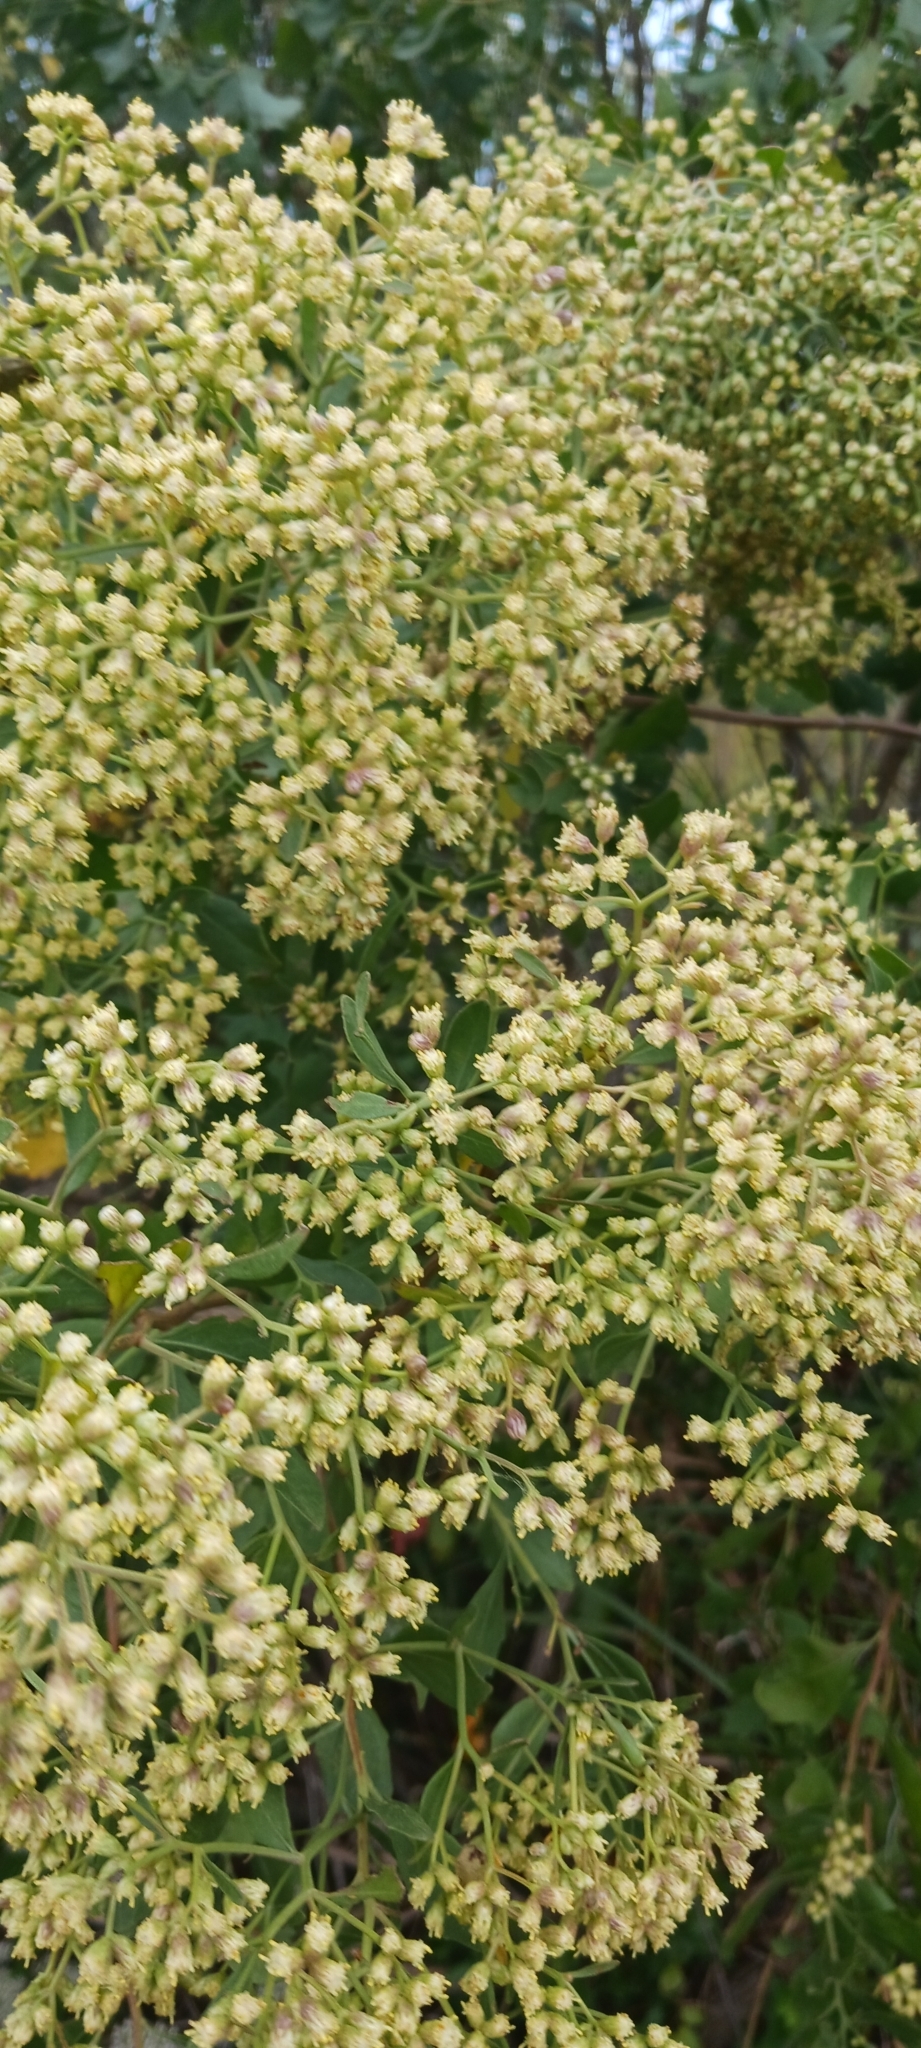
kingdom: Plantae
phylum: Tracheophyta
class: Magnoliopsida
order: Asterales
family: Asteraceae
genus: Baccharis
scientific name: Baccharis halimifolia
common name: Eastern baccharis
